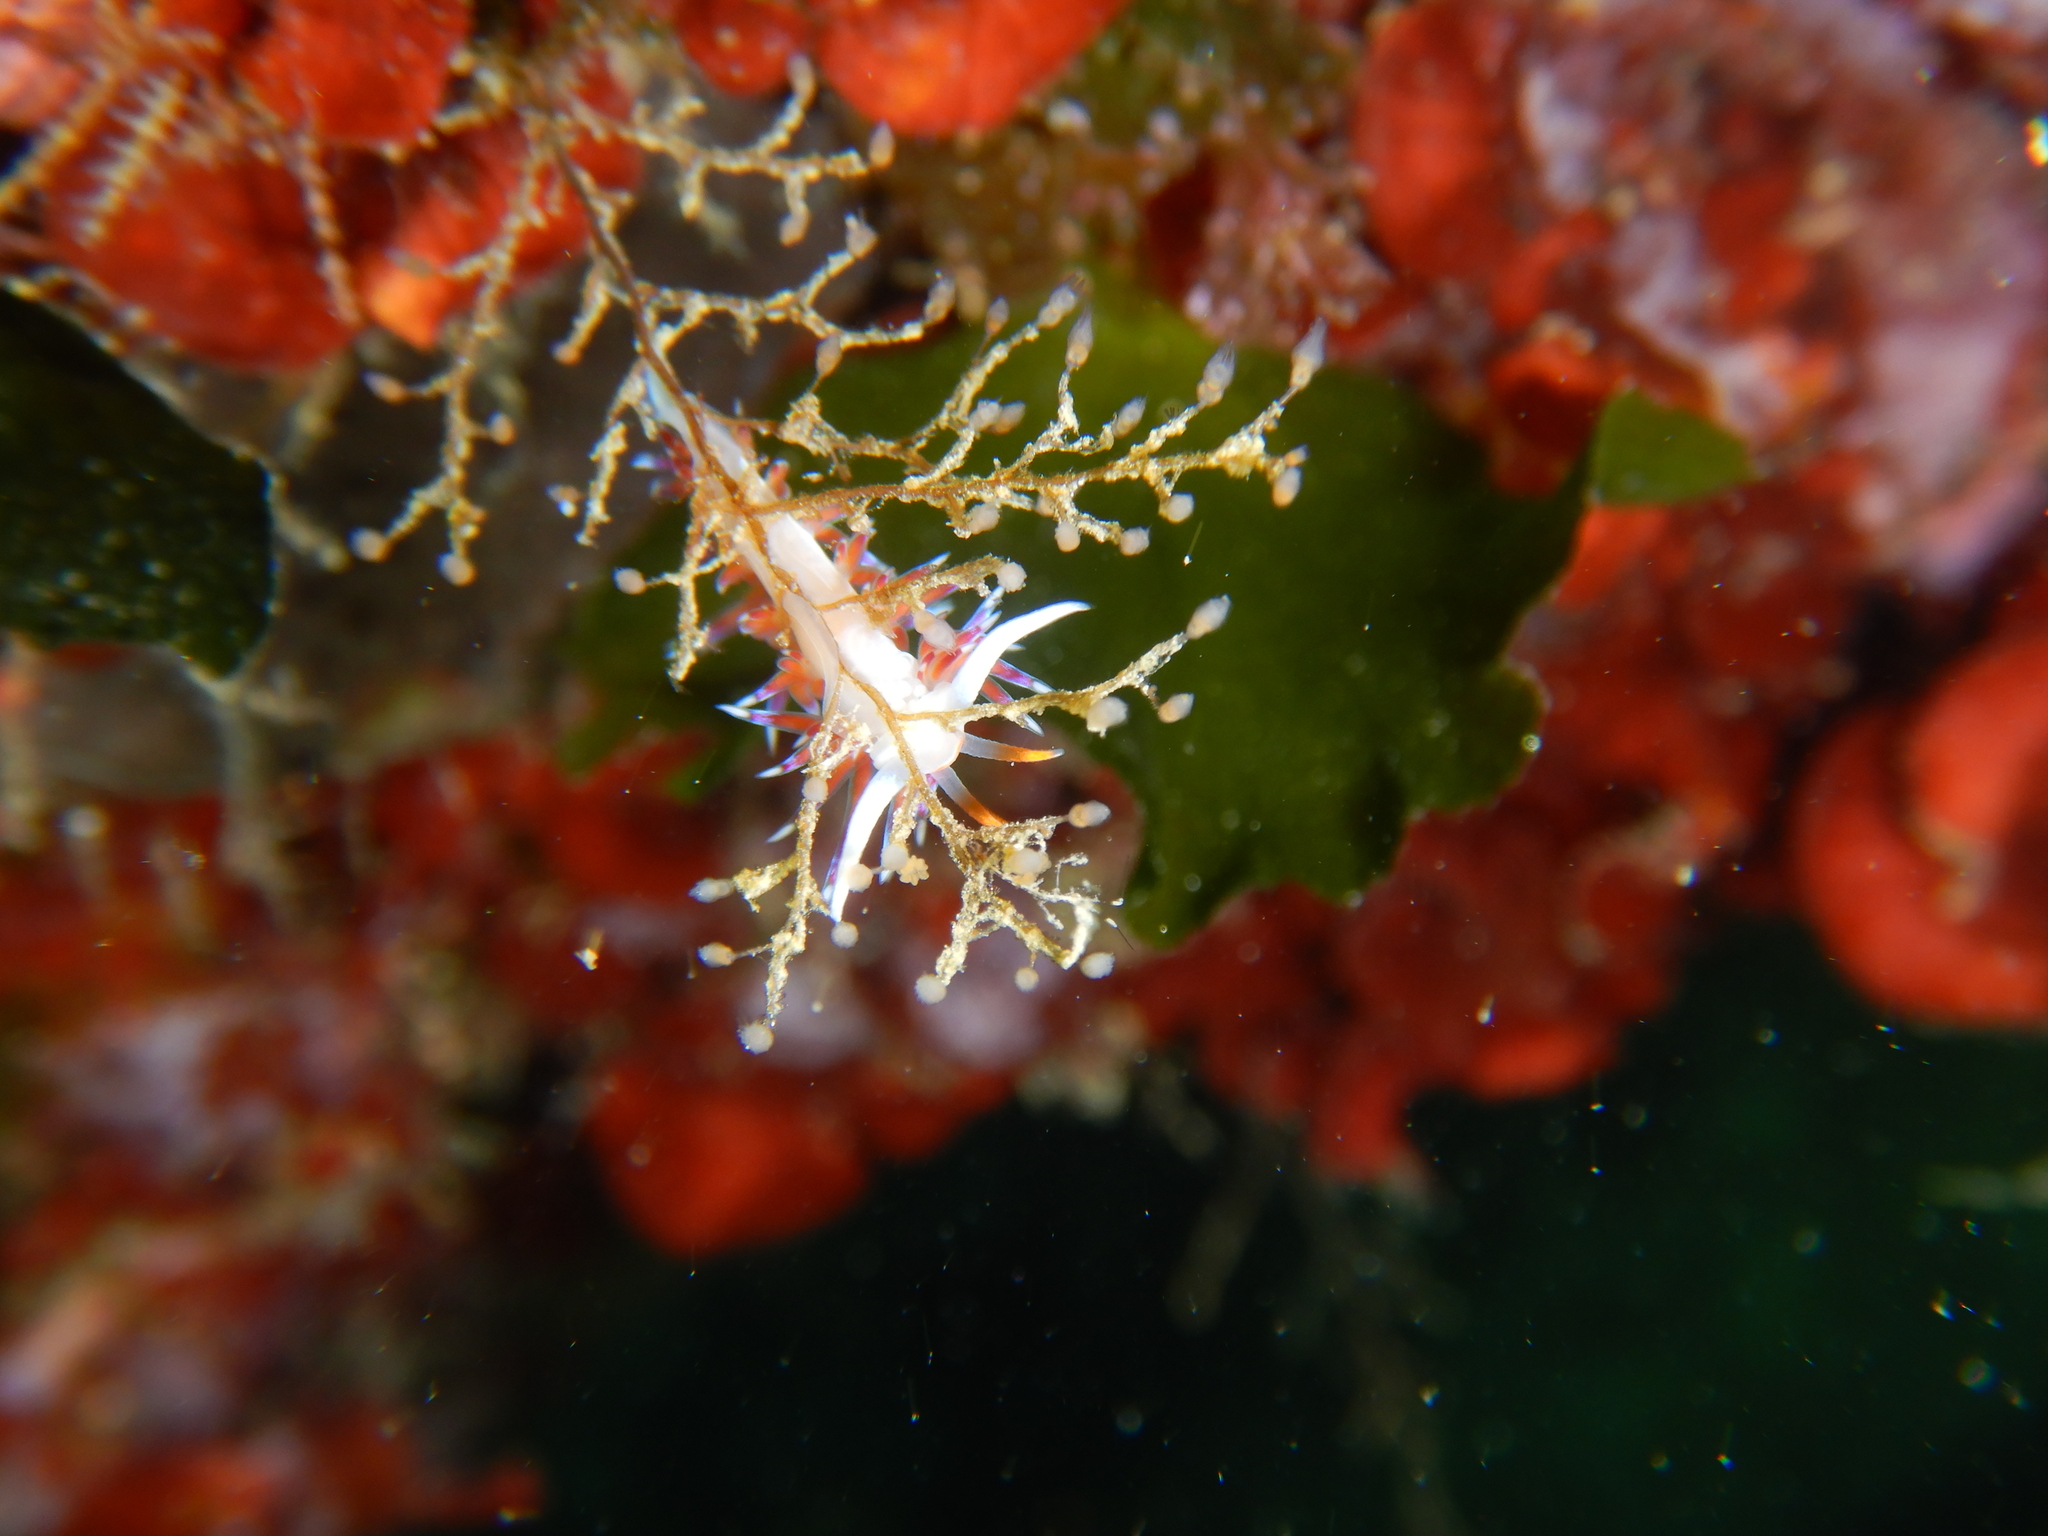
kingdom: Animalia
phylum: Mollusca
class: Gastropoda
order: Nudibranchia
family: Facelinidae
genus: Cratena
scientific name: Cratena peregrina
